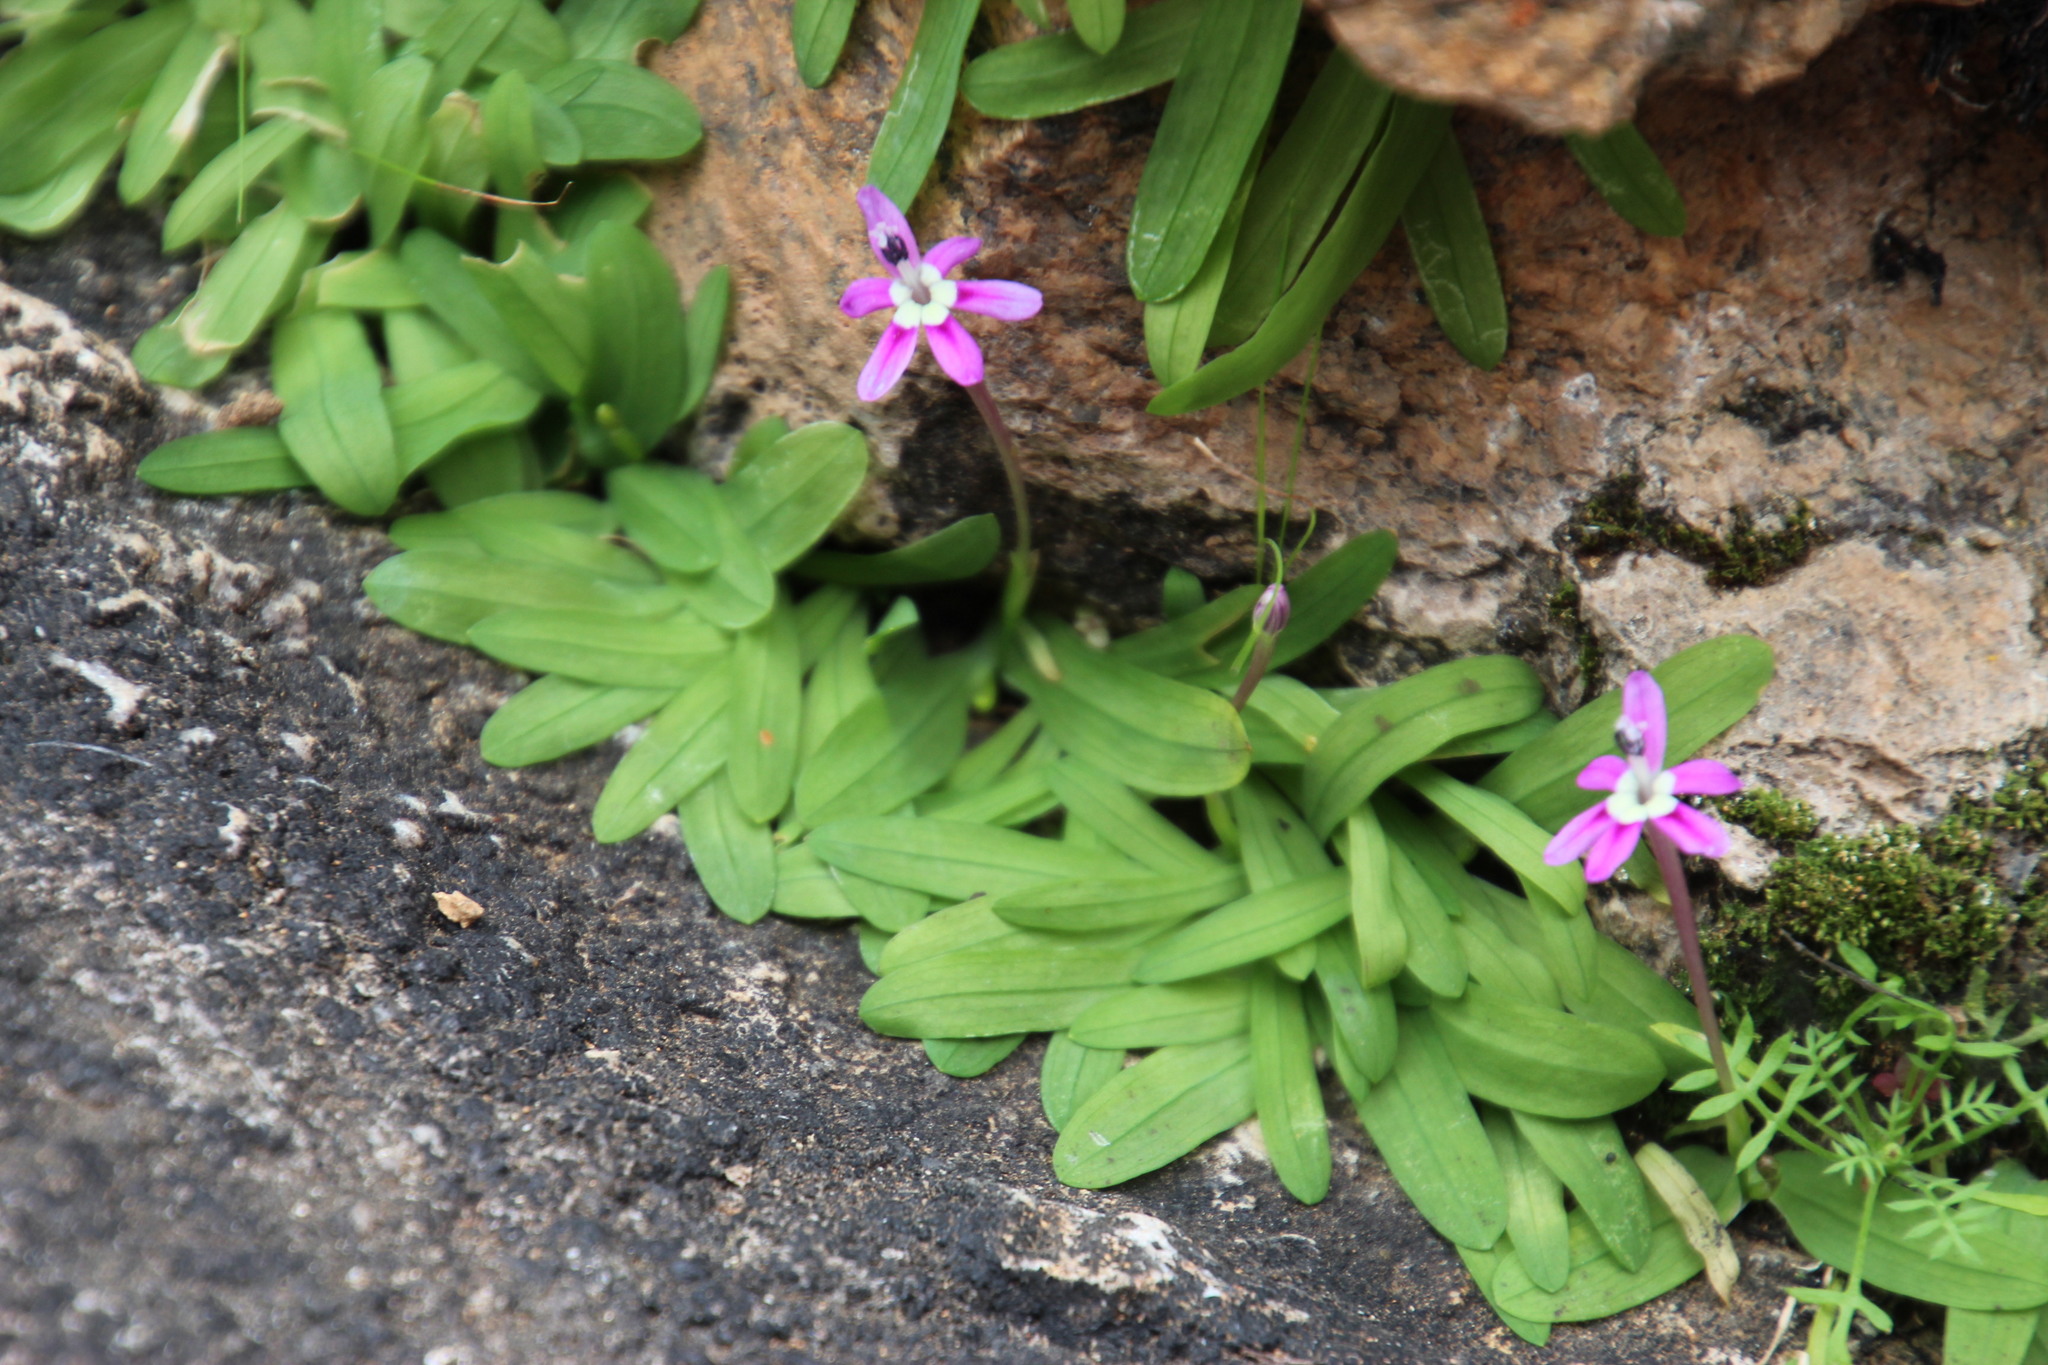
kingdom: Plantae
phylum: Tracheophyta
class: Liliopsida
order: Asparagales
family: Iridaceae
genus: Xenoscapa
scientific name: Xenoscapa uliginosa
